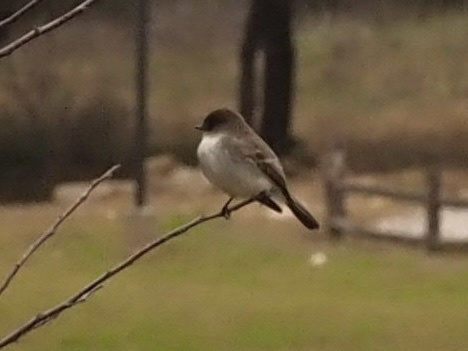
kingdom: Animalia
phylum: Chordata
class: Aves
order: Passeriformes
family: Tyrannidae
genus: Sayornis
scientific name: Sayornis phoebe
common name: Eastern phoebe
